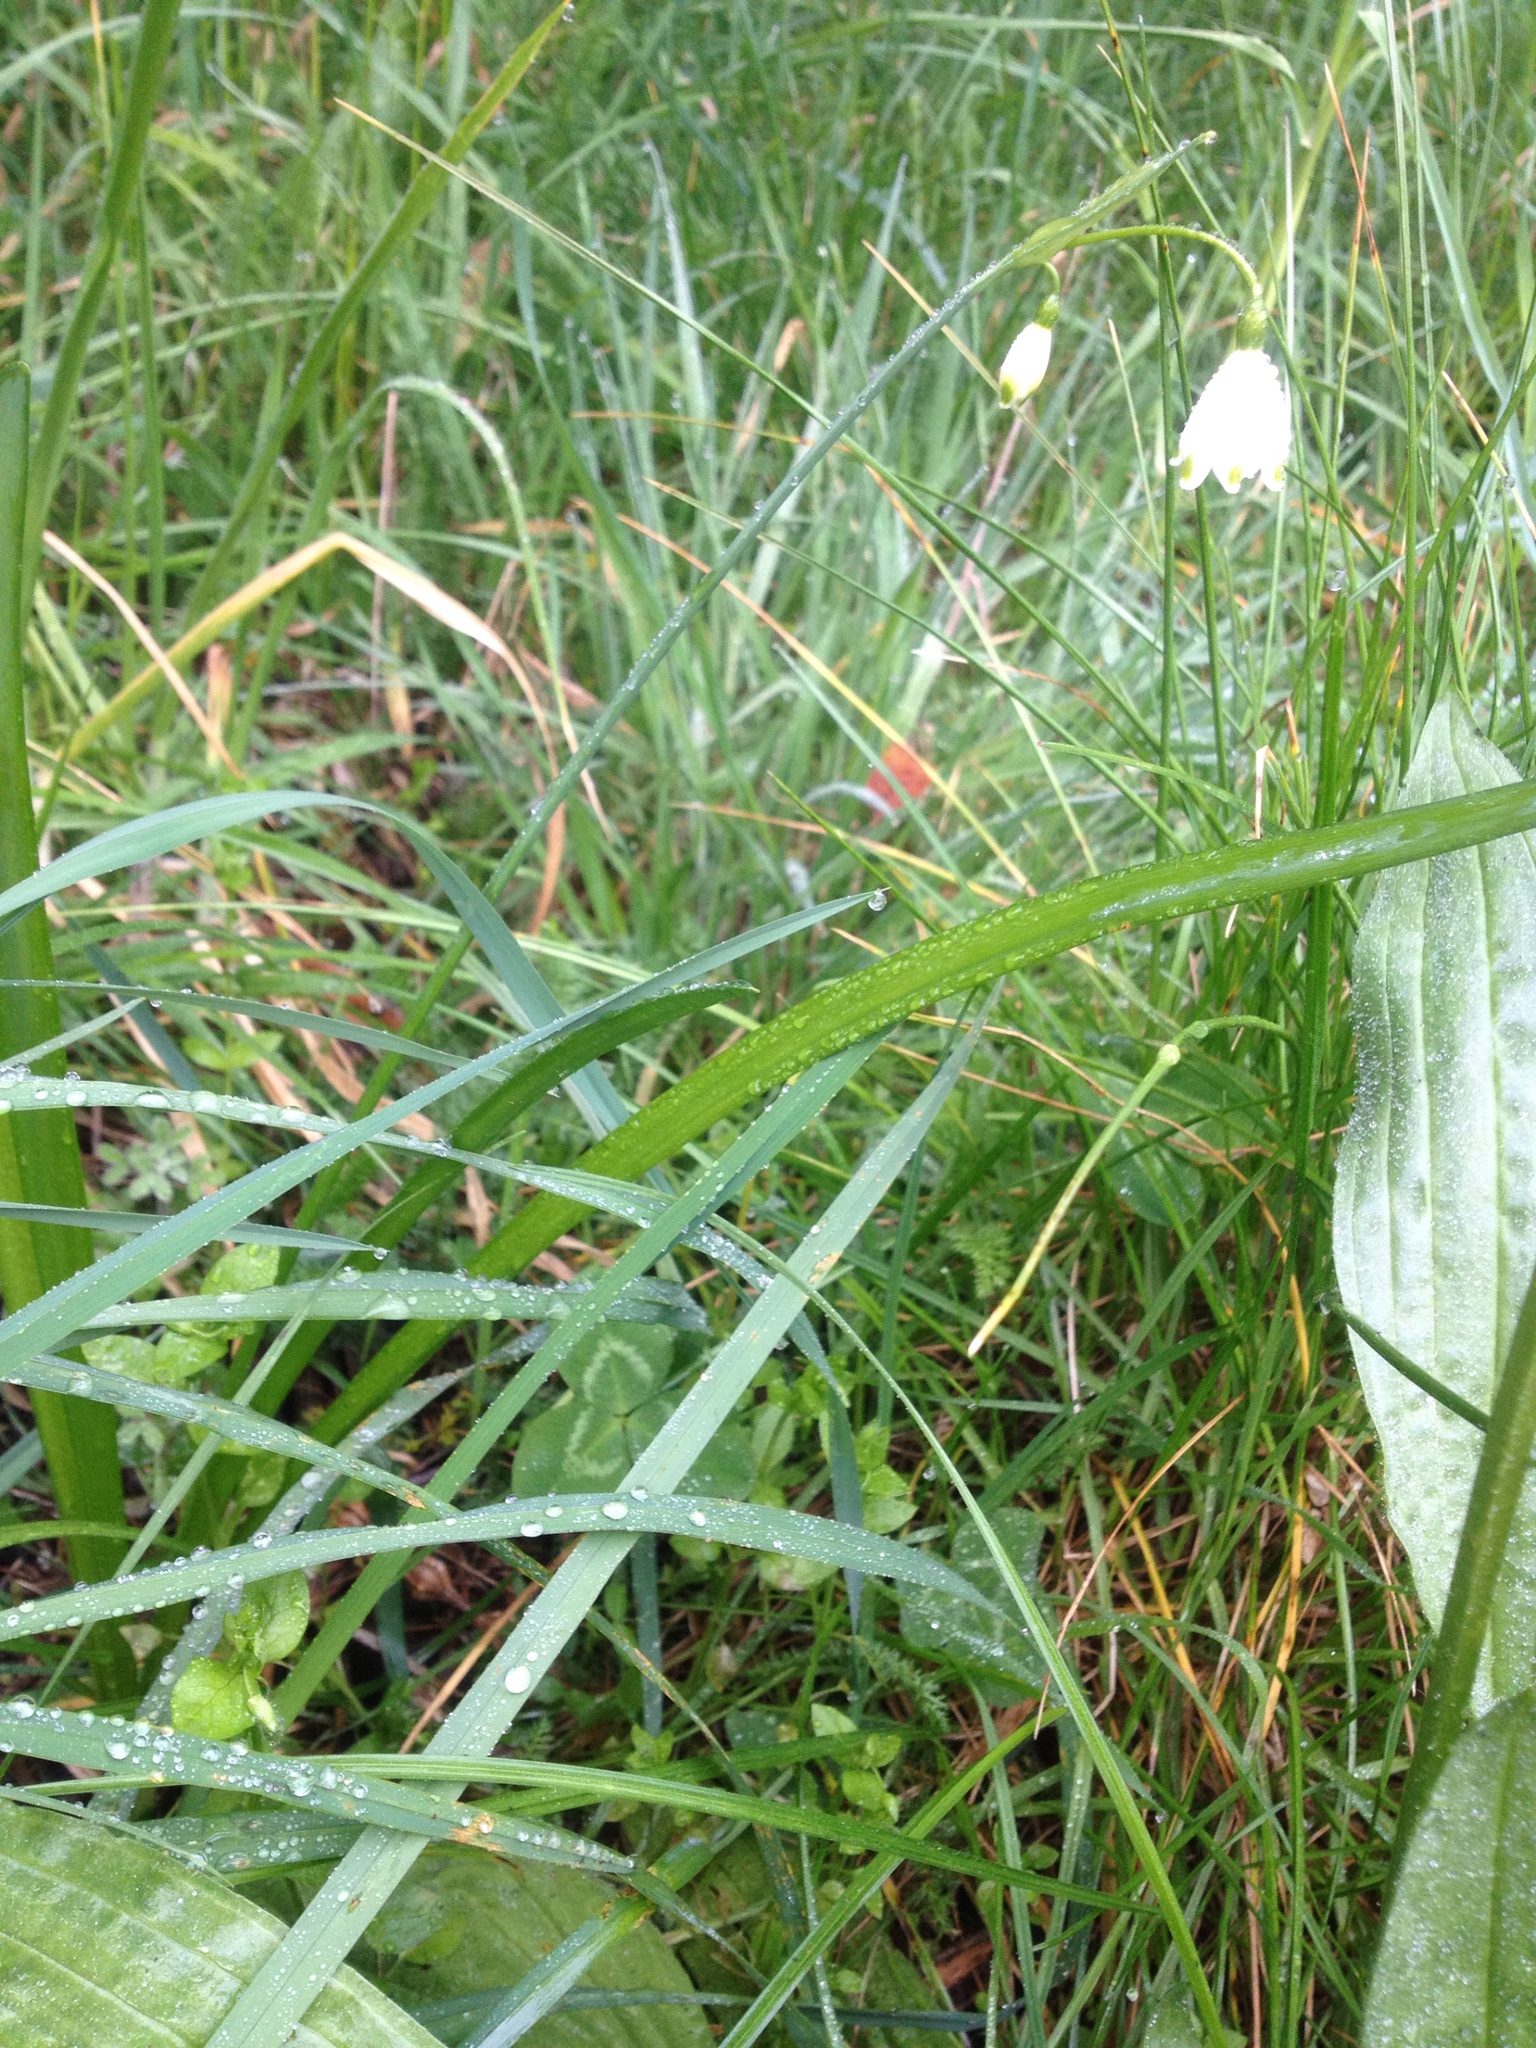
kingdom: Plantae
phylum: Tracheophyta
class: Liliopsida
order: Asparagales
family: Amaryllidaceae
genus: Leucojum
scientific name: Leucojum aestivum
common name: Summer snowflake
